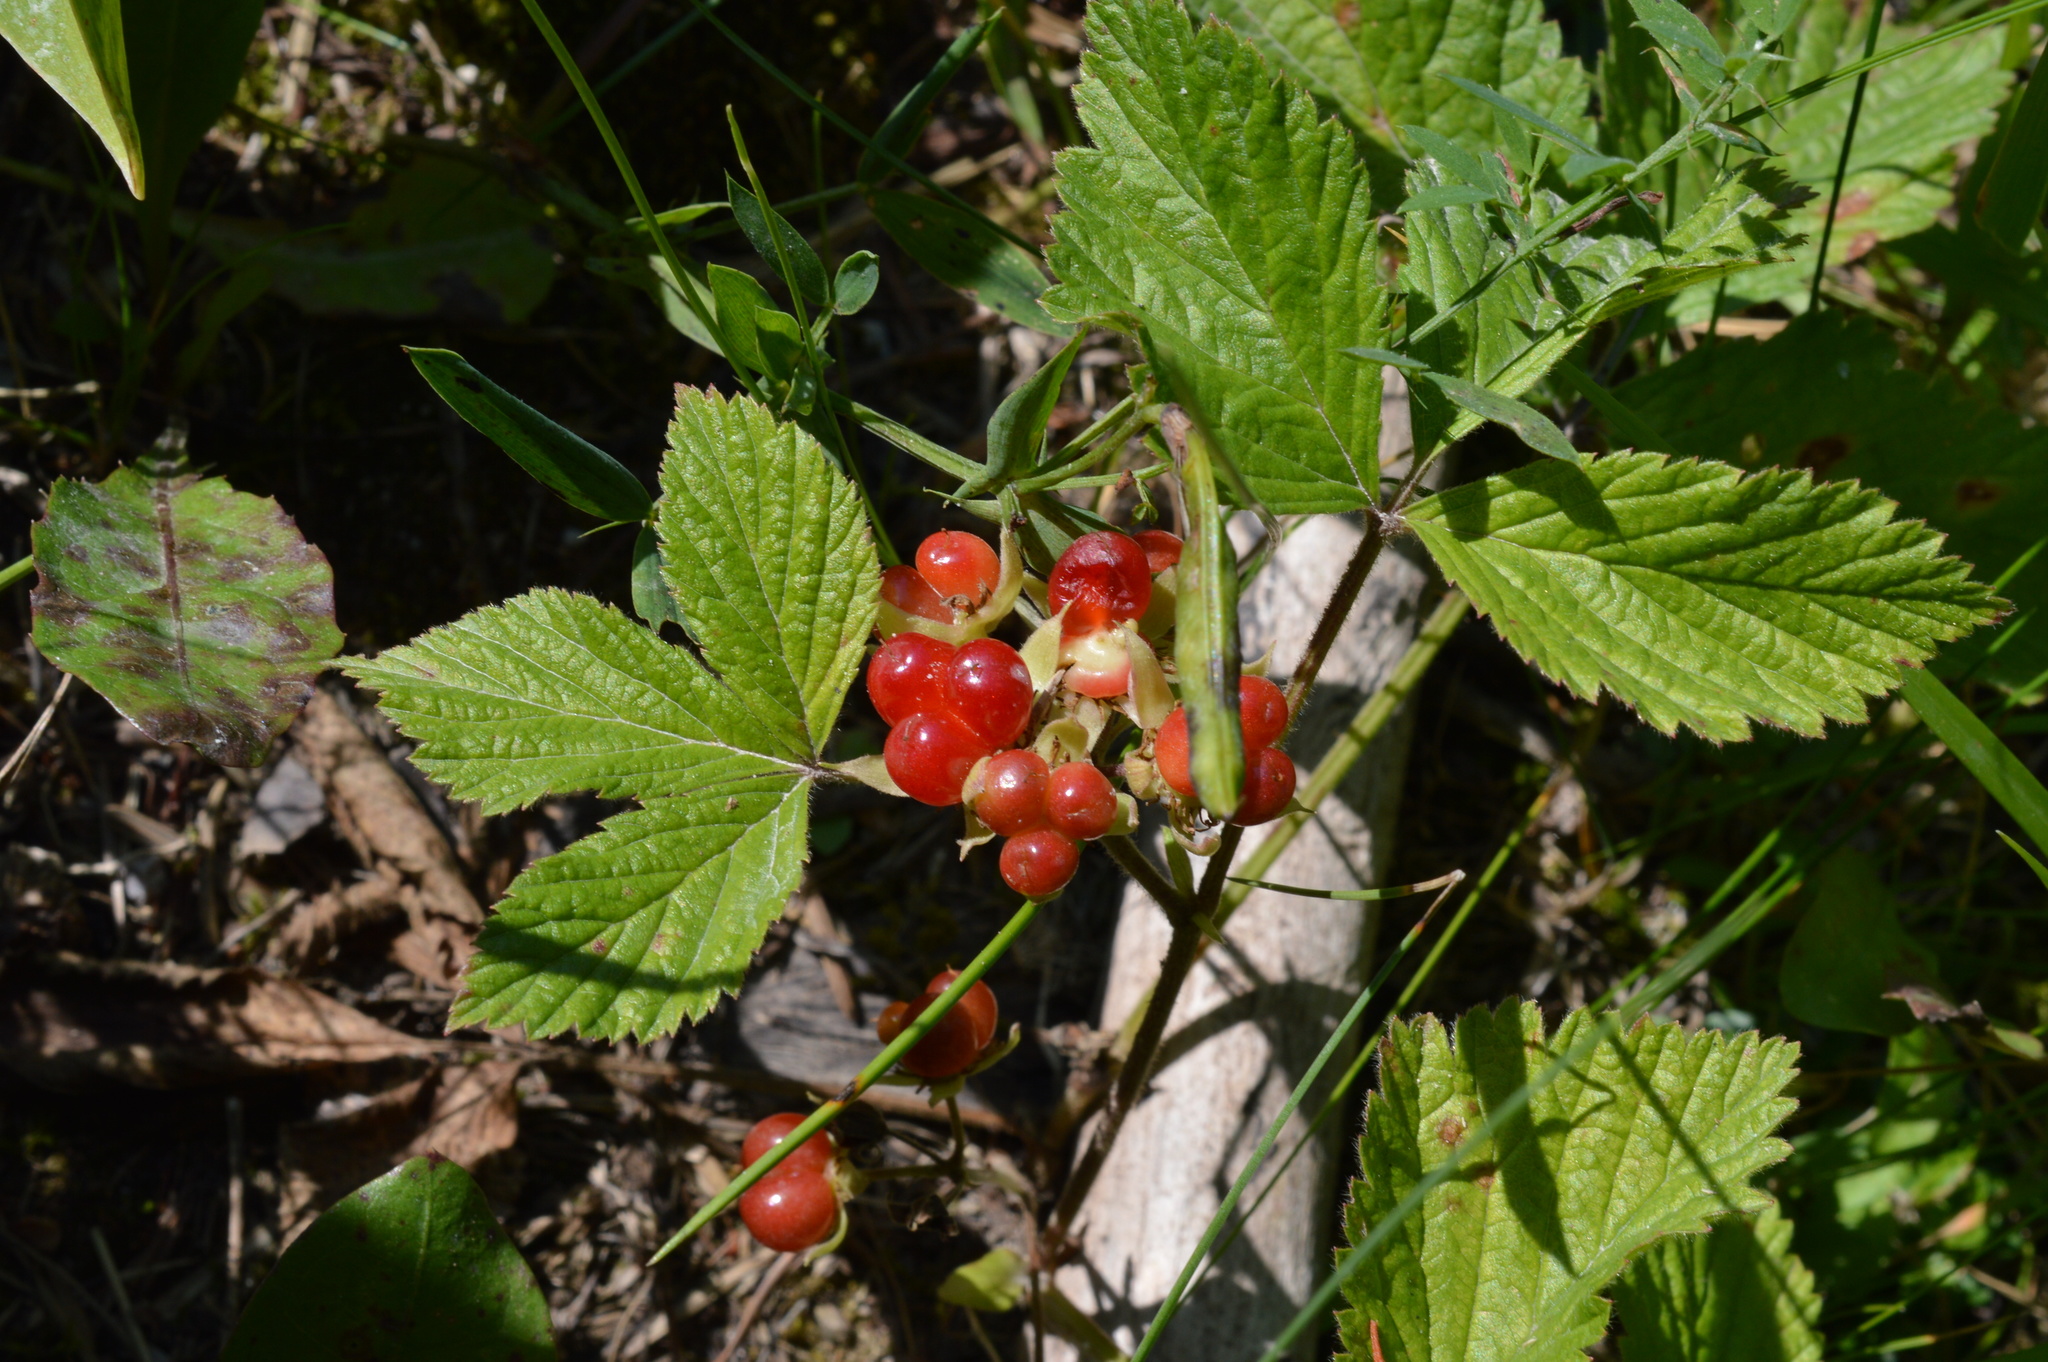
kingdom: Plantae
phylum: Tracheophyta
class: Magnoliopsida
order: Rosales
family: Rosaceae
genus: Rubus
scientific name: Rubus saxatilis
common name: Stone bramble
